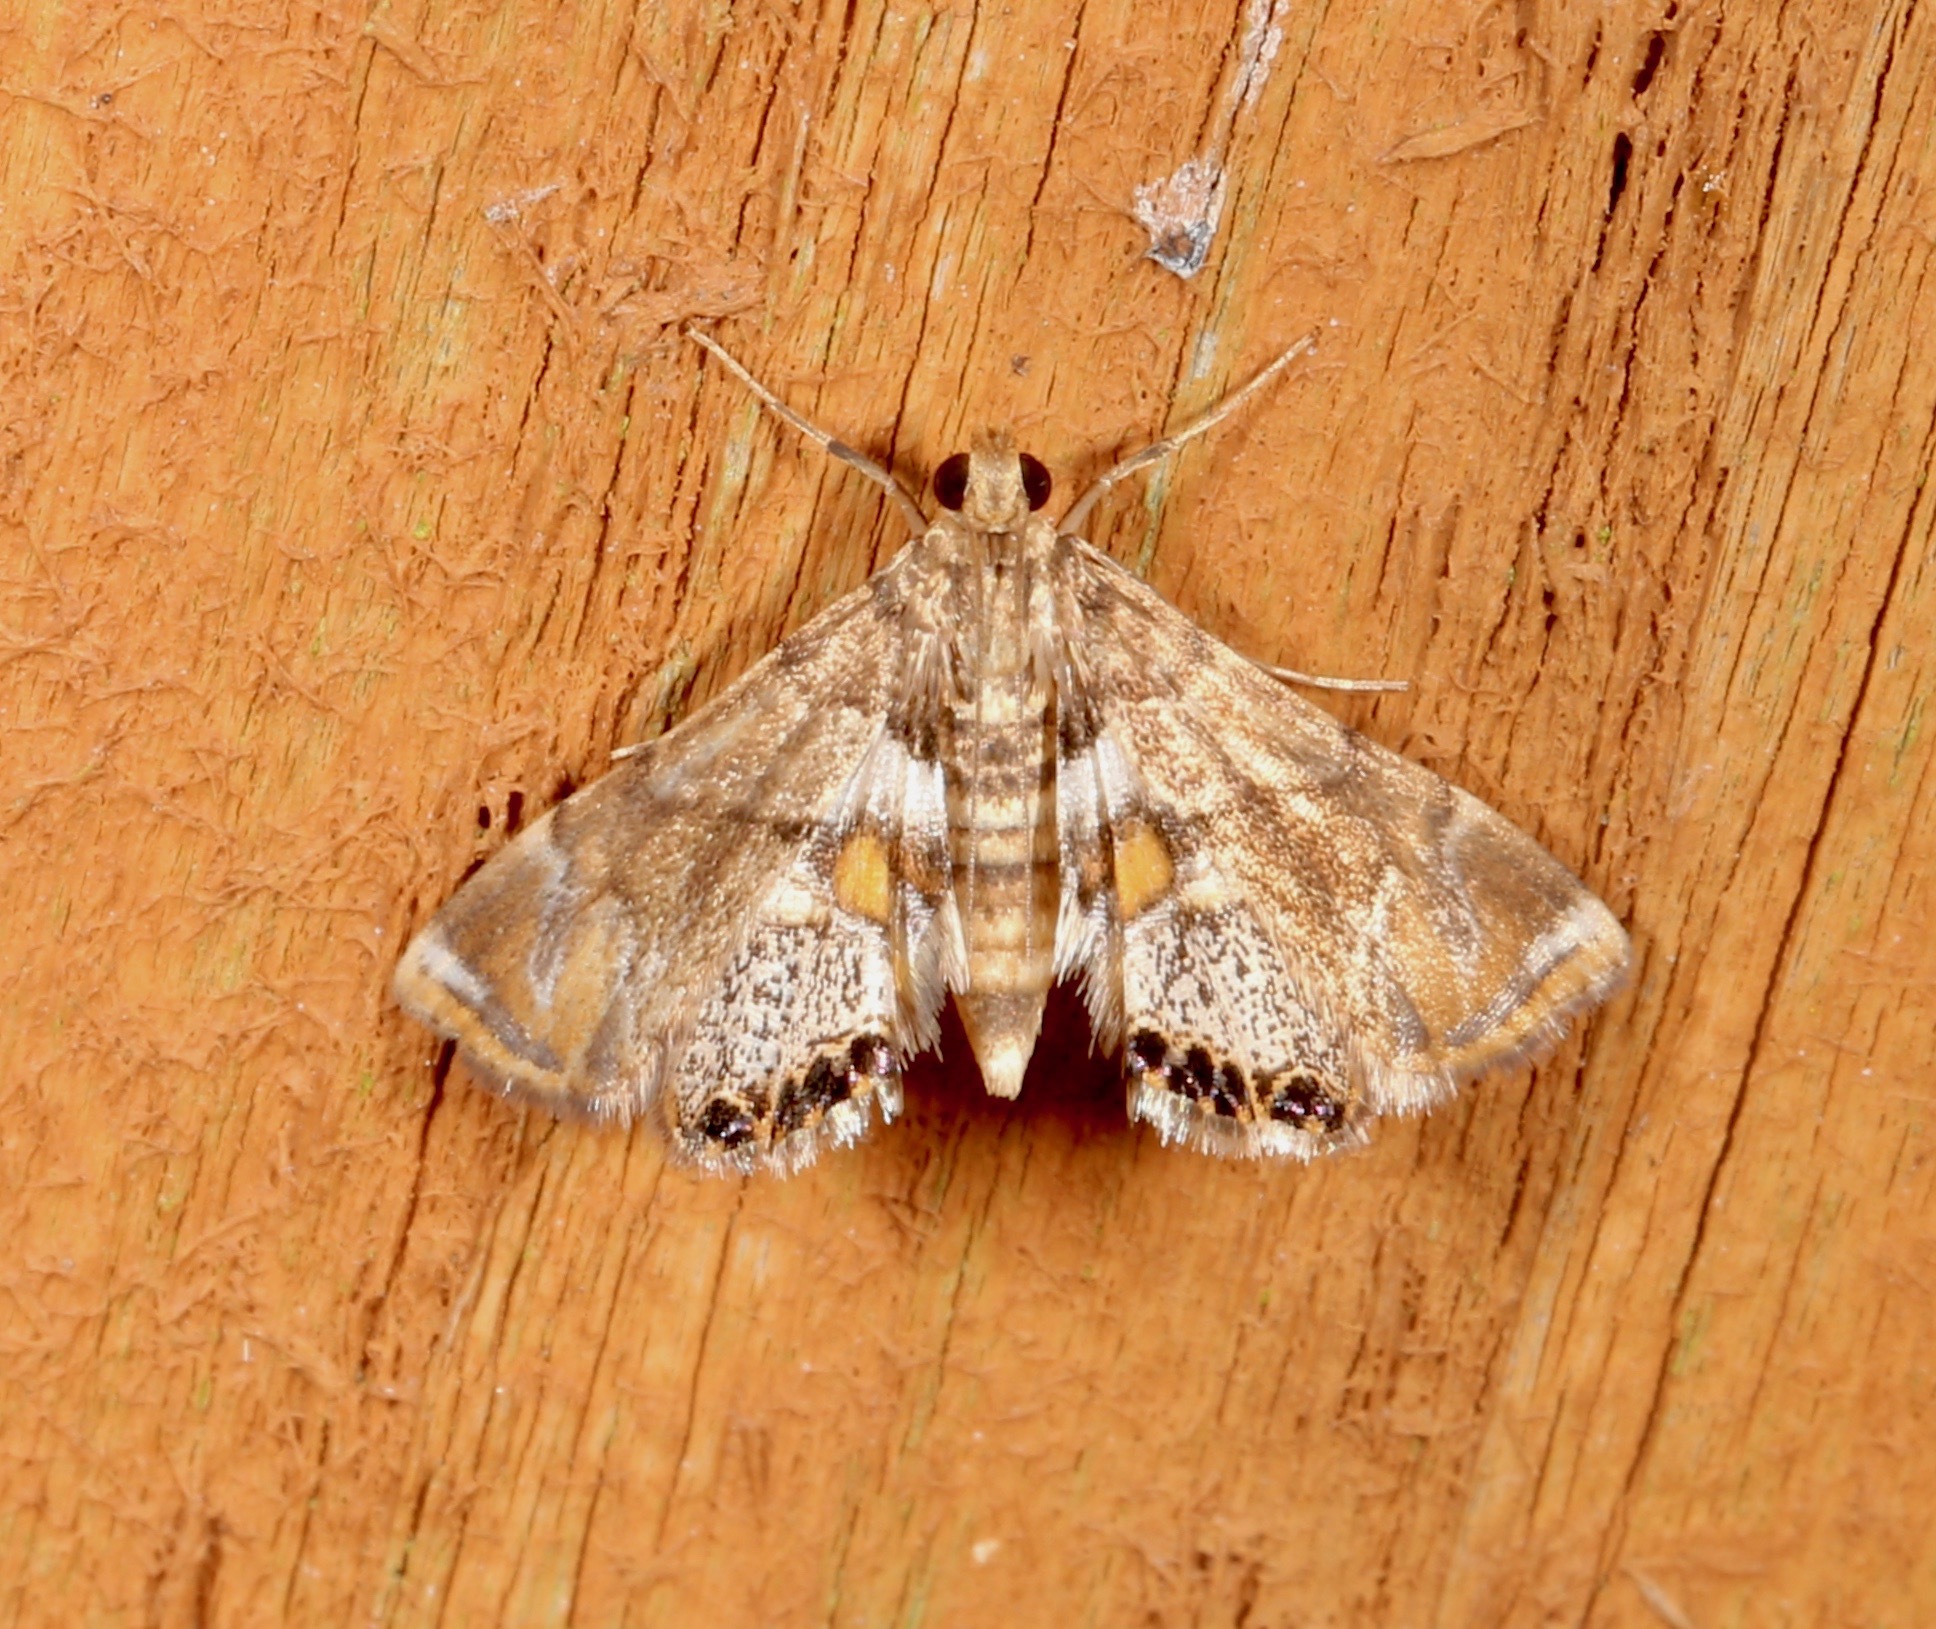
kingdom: Animalia
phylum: Arthropoda
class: Insecta
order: Lepidoptera
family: Crambidae
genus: Neargyractis
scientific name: Neargyractis slossonalis
